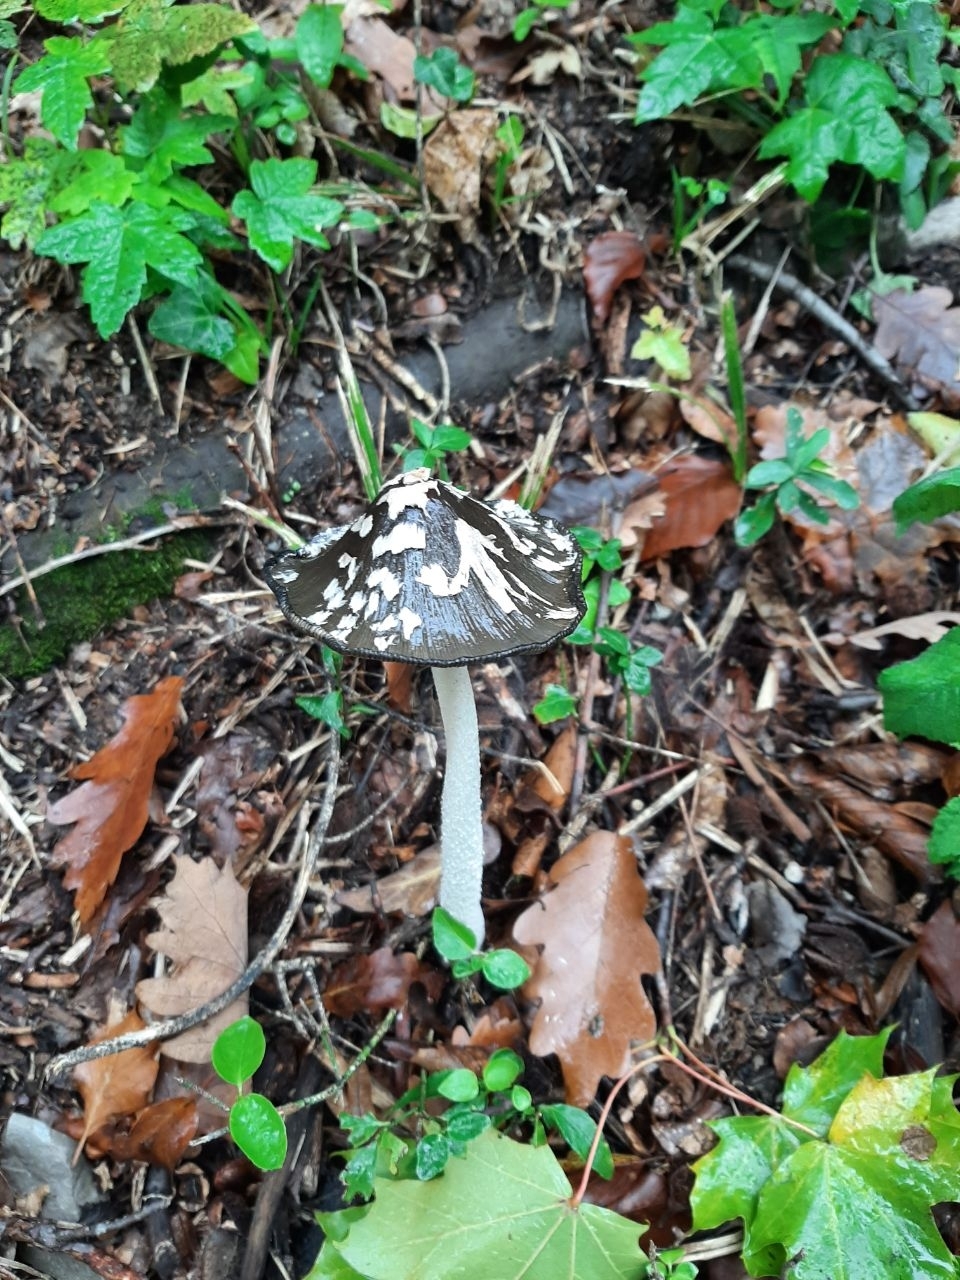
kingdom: Fungi
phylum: Basidiomycota
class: Agaricomycetes
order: Agaricales
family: Psathyrellaceae
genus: Coprinopsis
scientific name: Coprinopsis picacea
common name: Magpie inkcap
